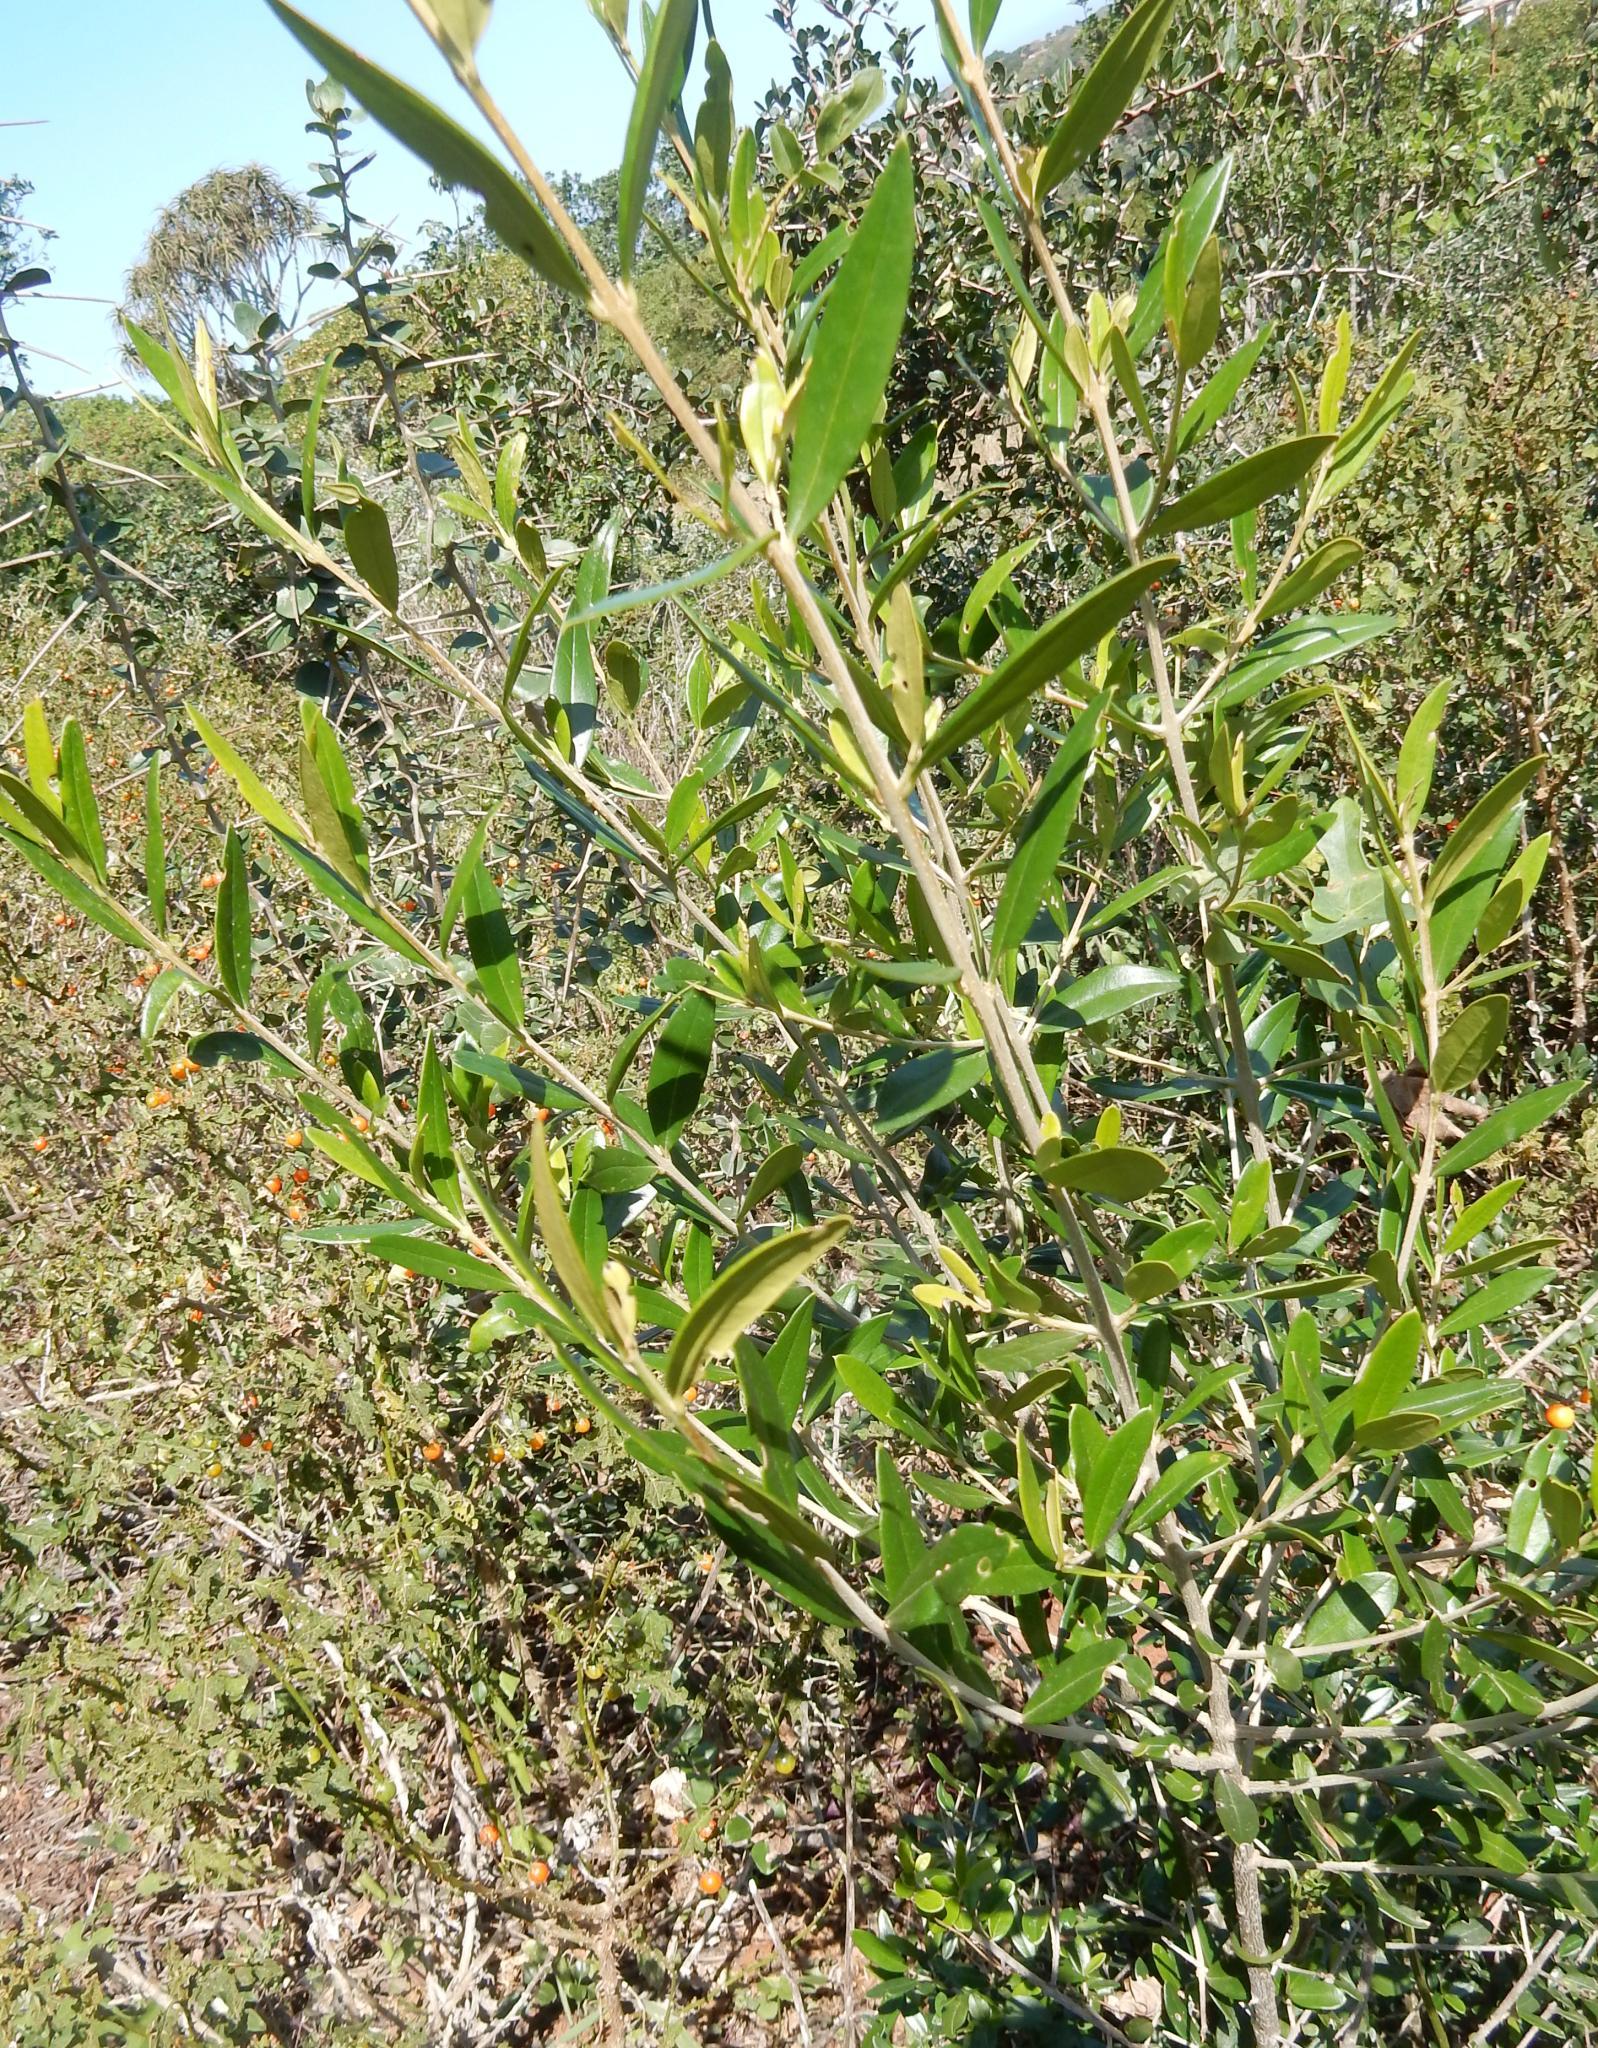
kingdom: Plantae
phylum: Tracheophyta
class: Magnoliopsida
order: Lamiales
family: Oleaceae
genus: Olea
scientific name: Olea europaea
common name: Olive
